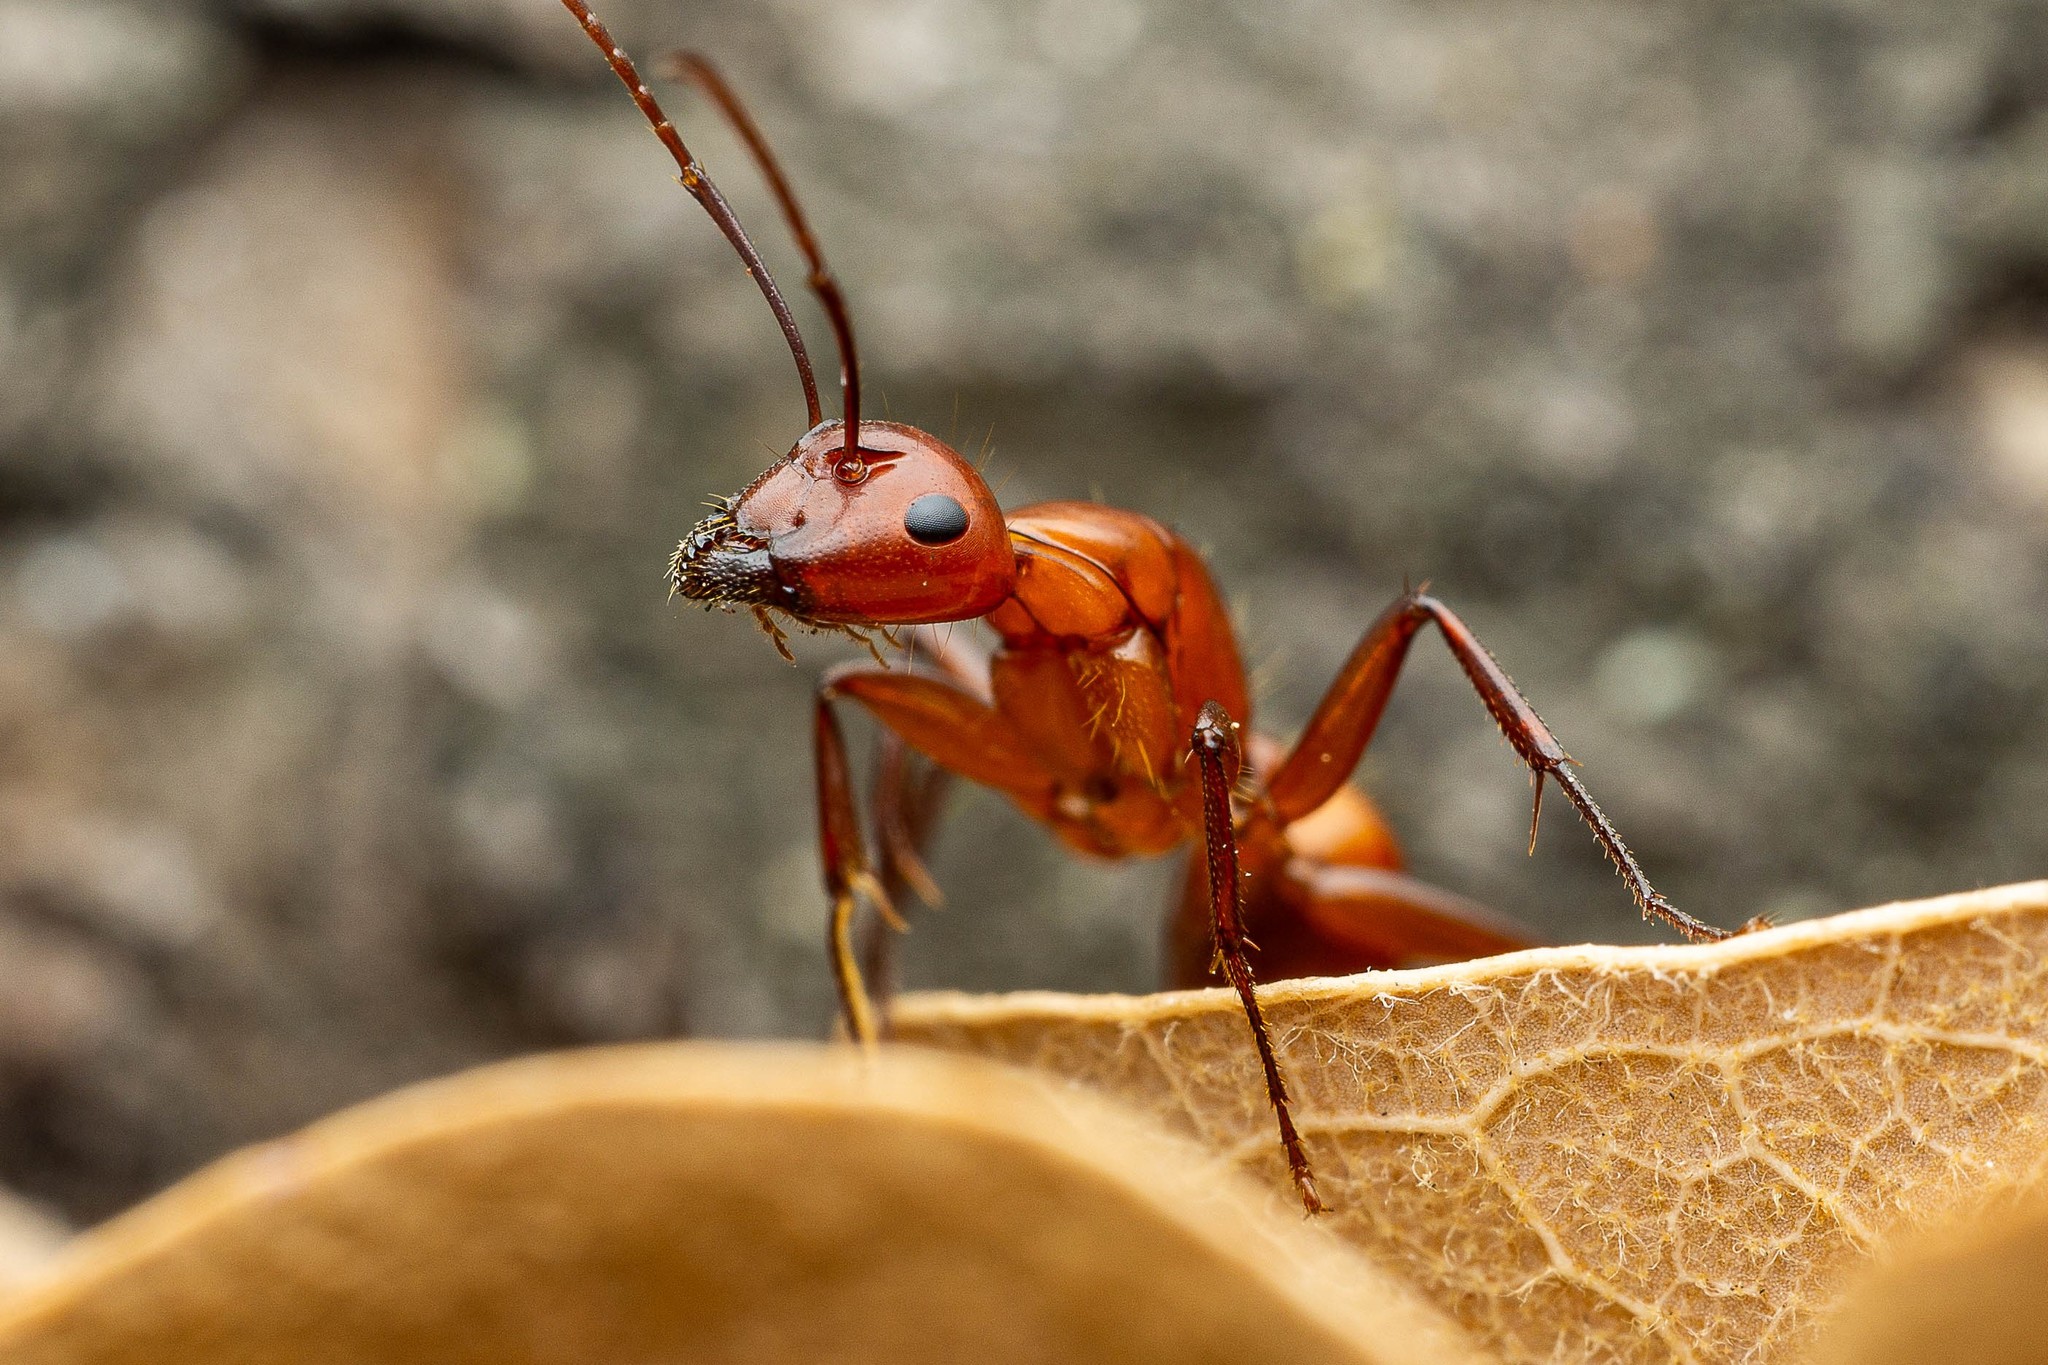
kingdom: Animalia
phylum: Arthropoda
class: Insecta
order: Hymenoptera
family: Formicidae
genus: Camponotus
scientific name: Camponotus schaefferi
